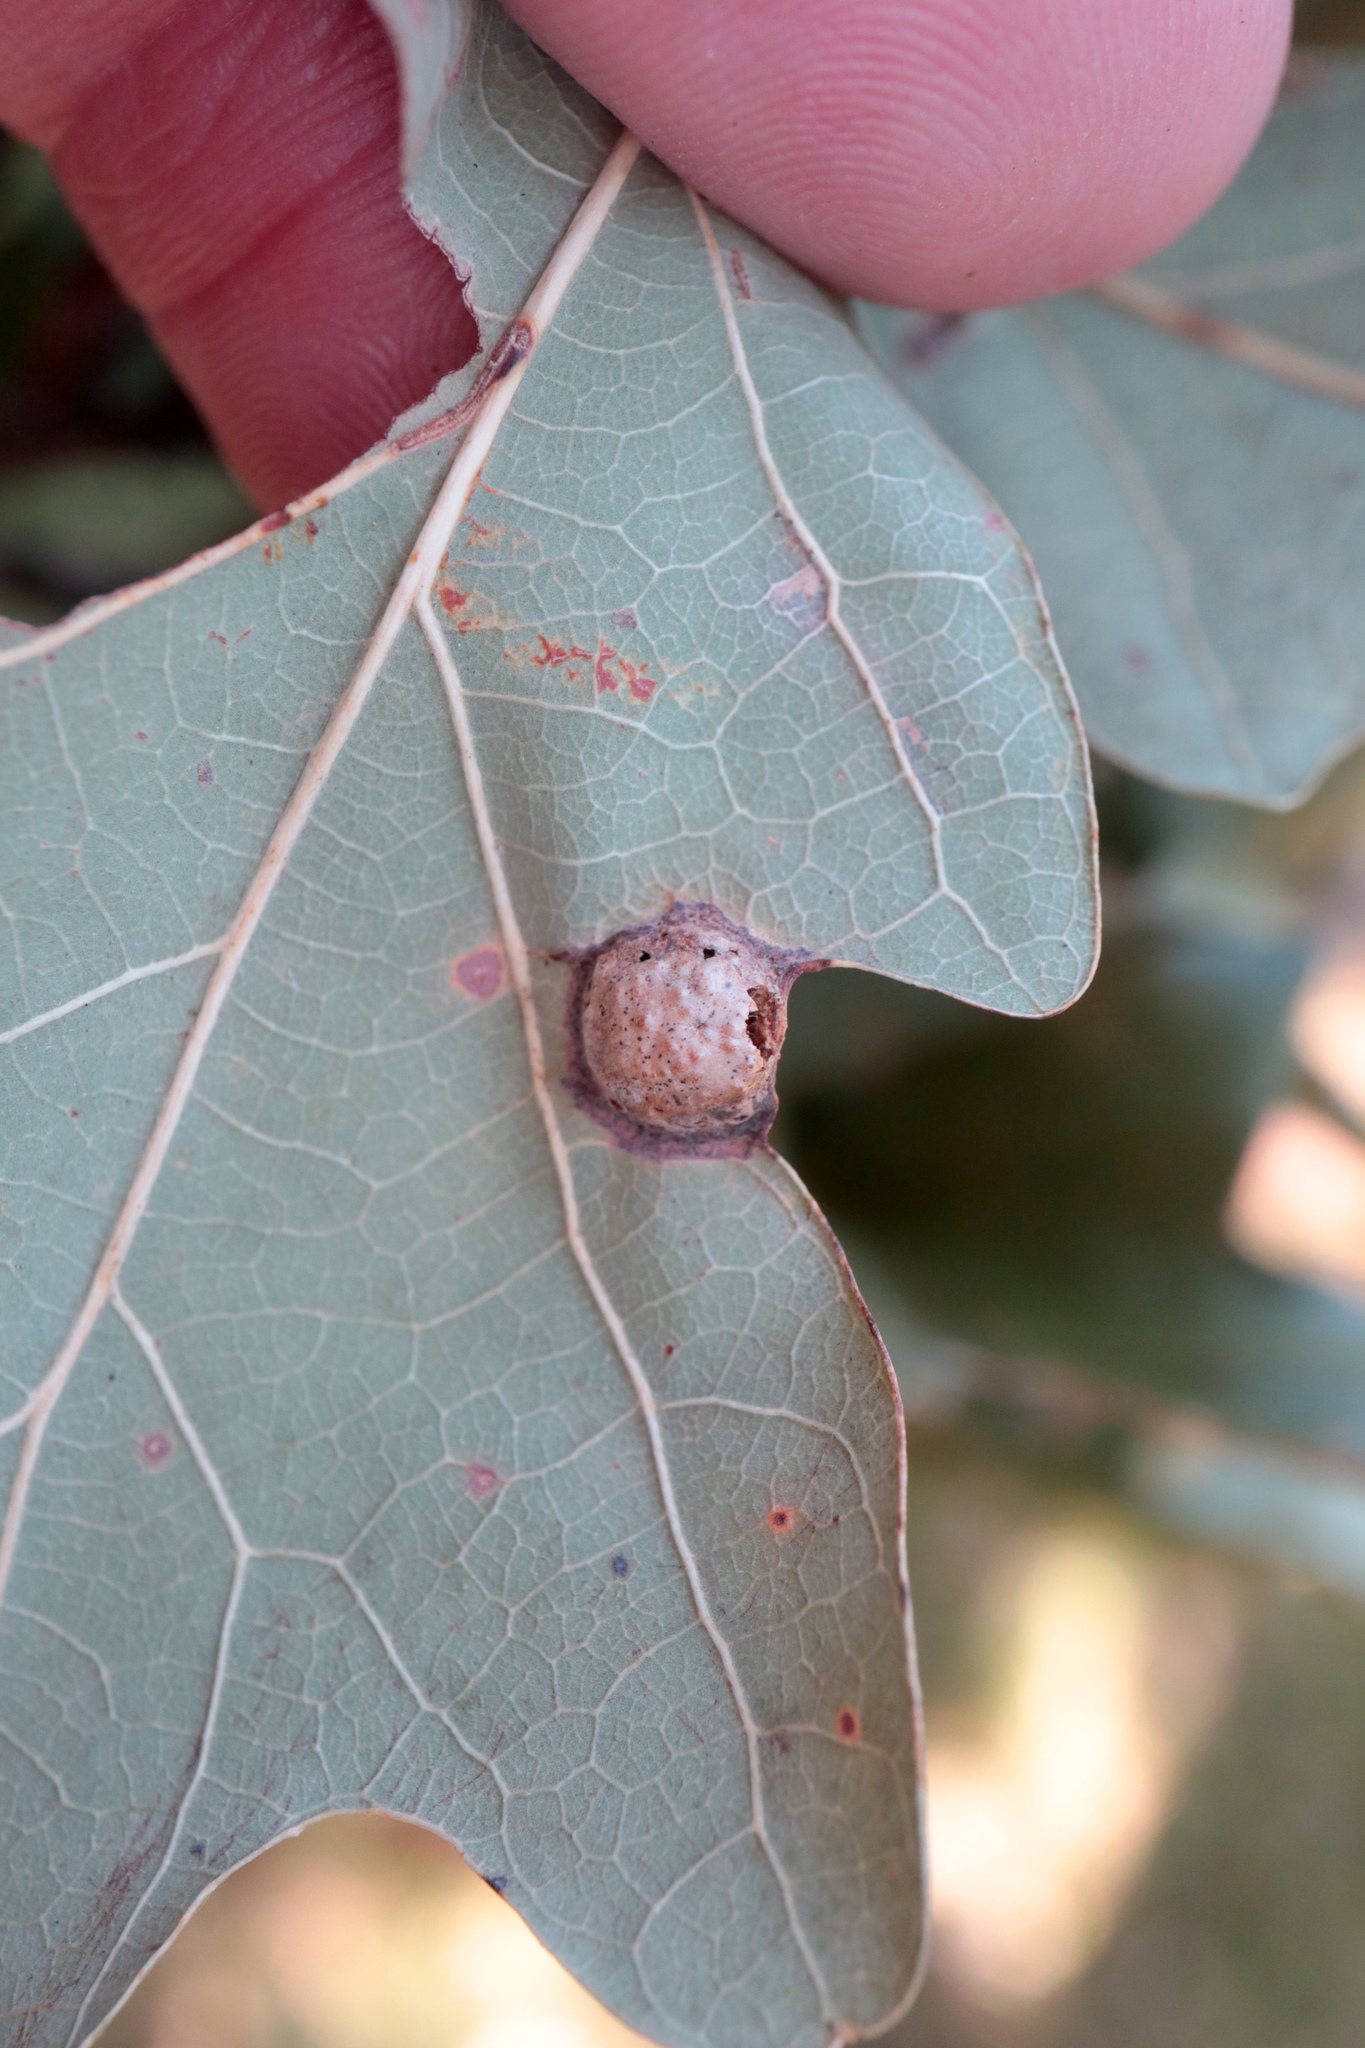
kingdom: Animalia
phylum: Arthropoda
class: Insecta
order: Hymenoptera
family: Cynipidae
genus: Callirhytis
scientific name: Callirhytis
